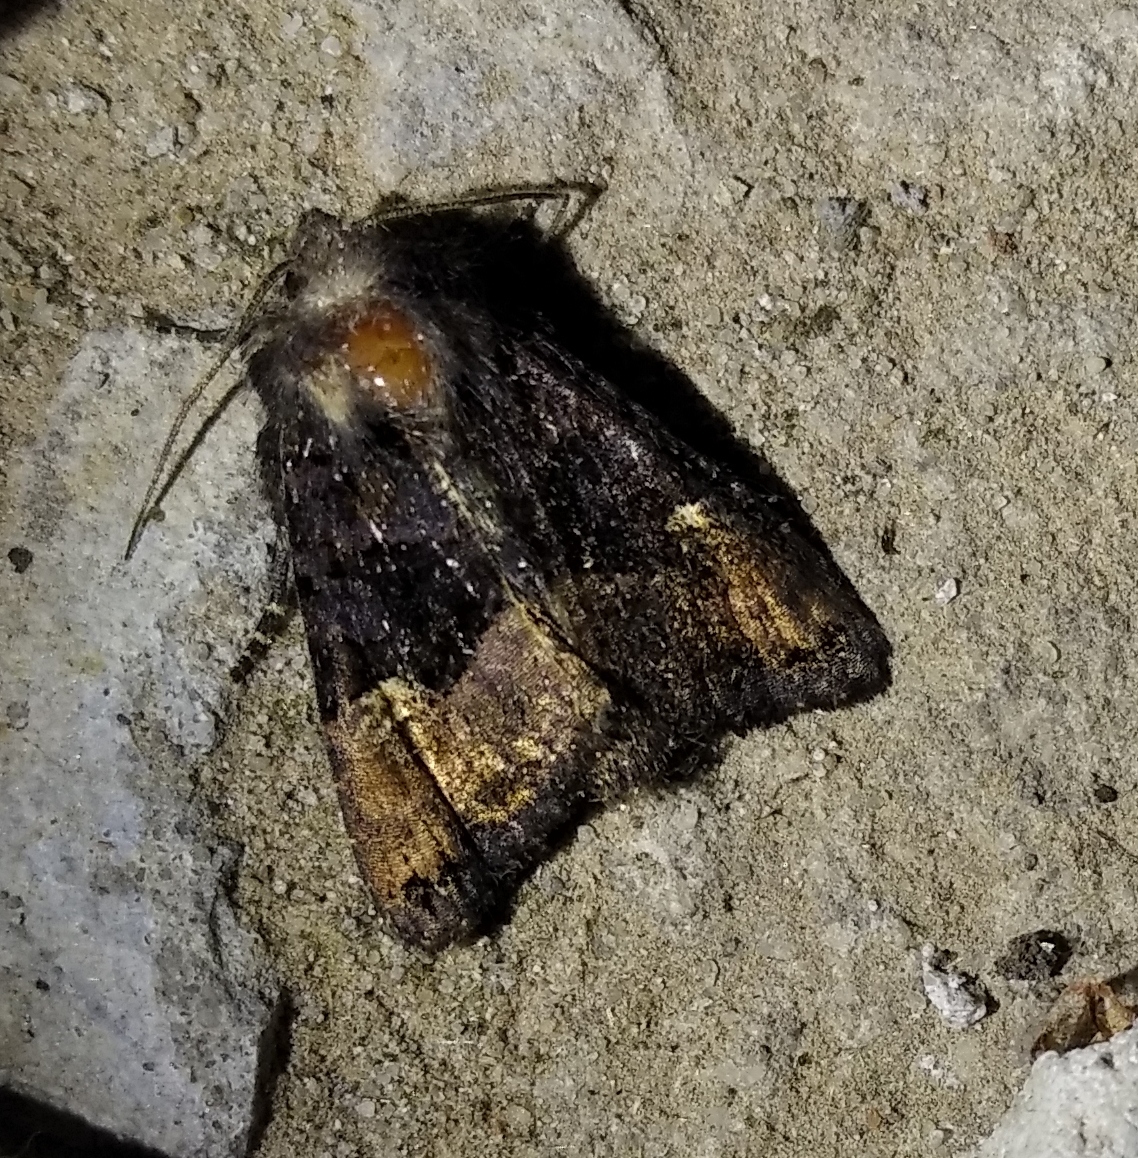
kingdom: Animalia
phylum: Arthropoda
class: Insecta
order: Lepidoptera
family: Noctuidae
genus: Euplexia
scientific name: Euplexia lucipara
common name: Small angle shades
